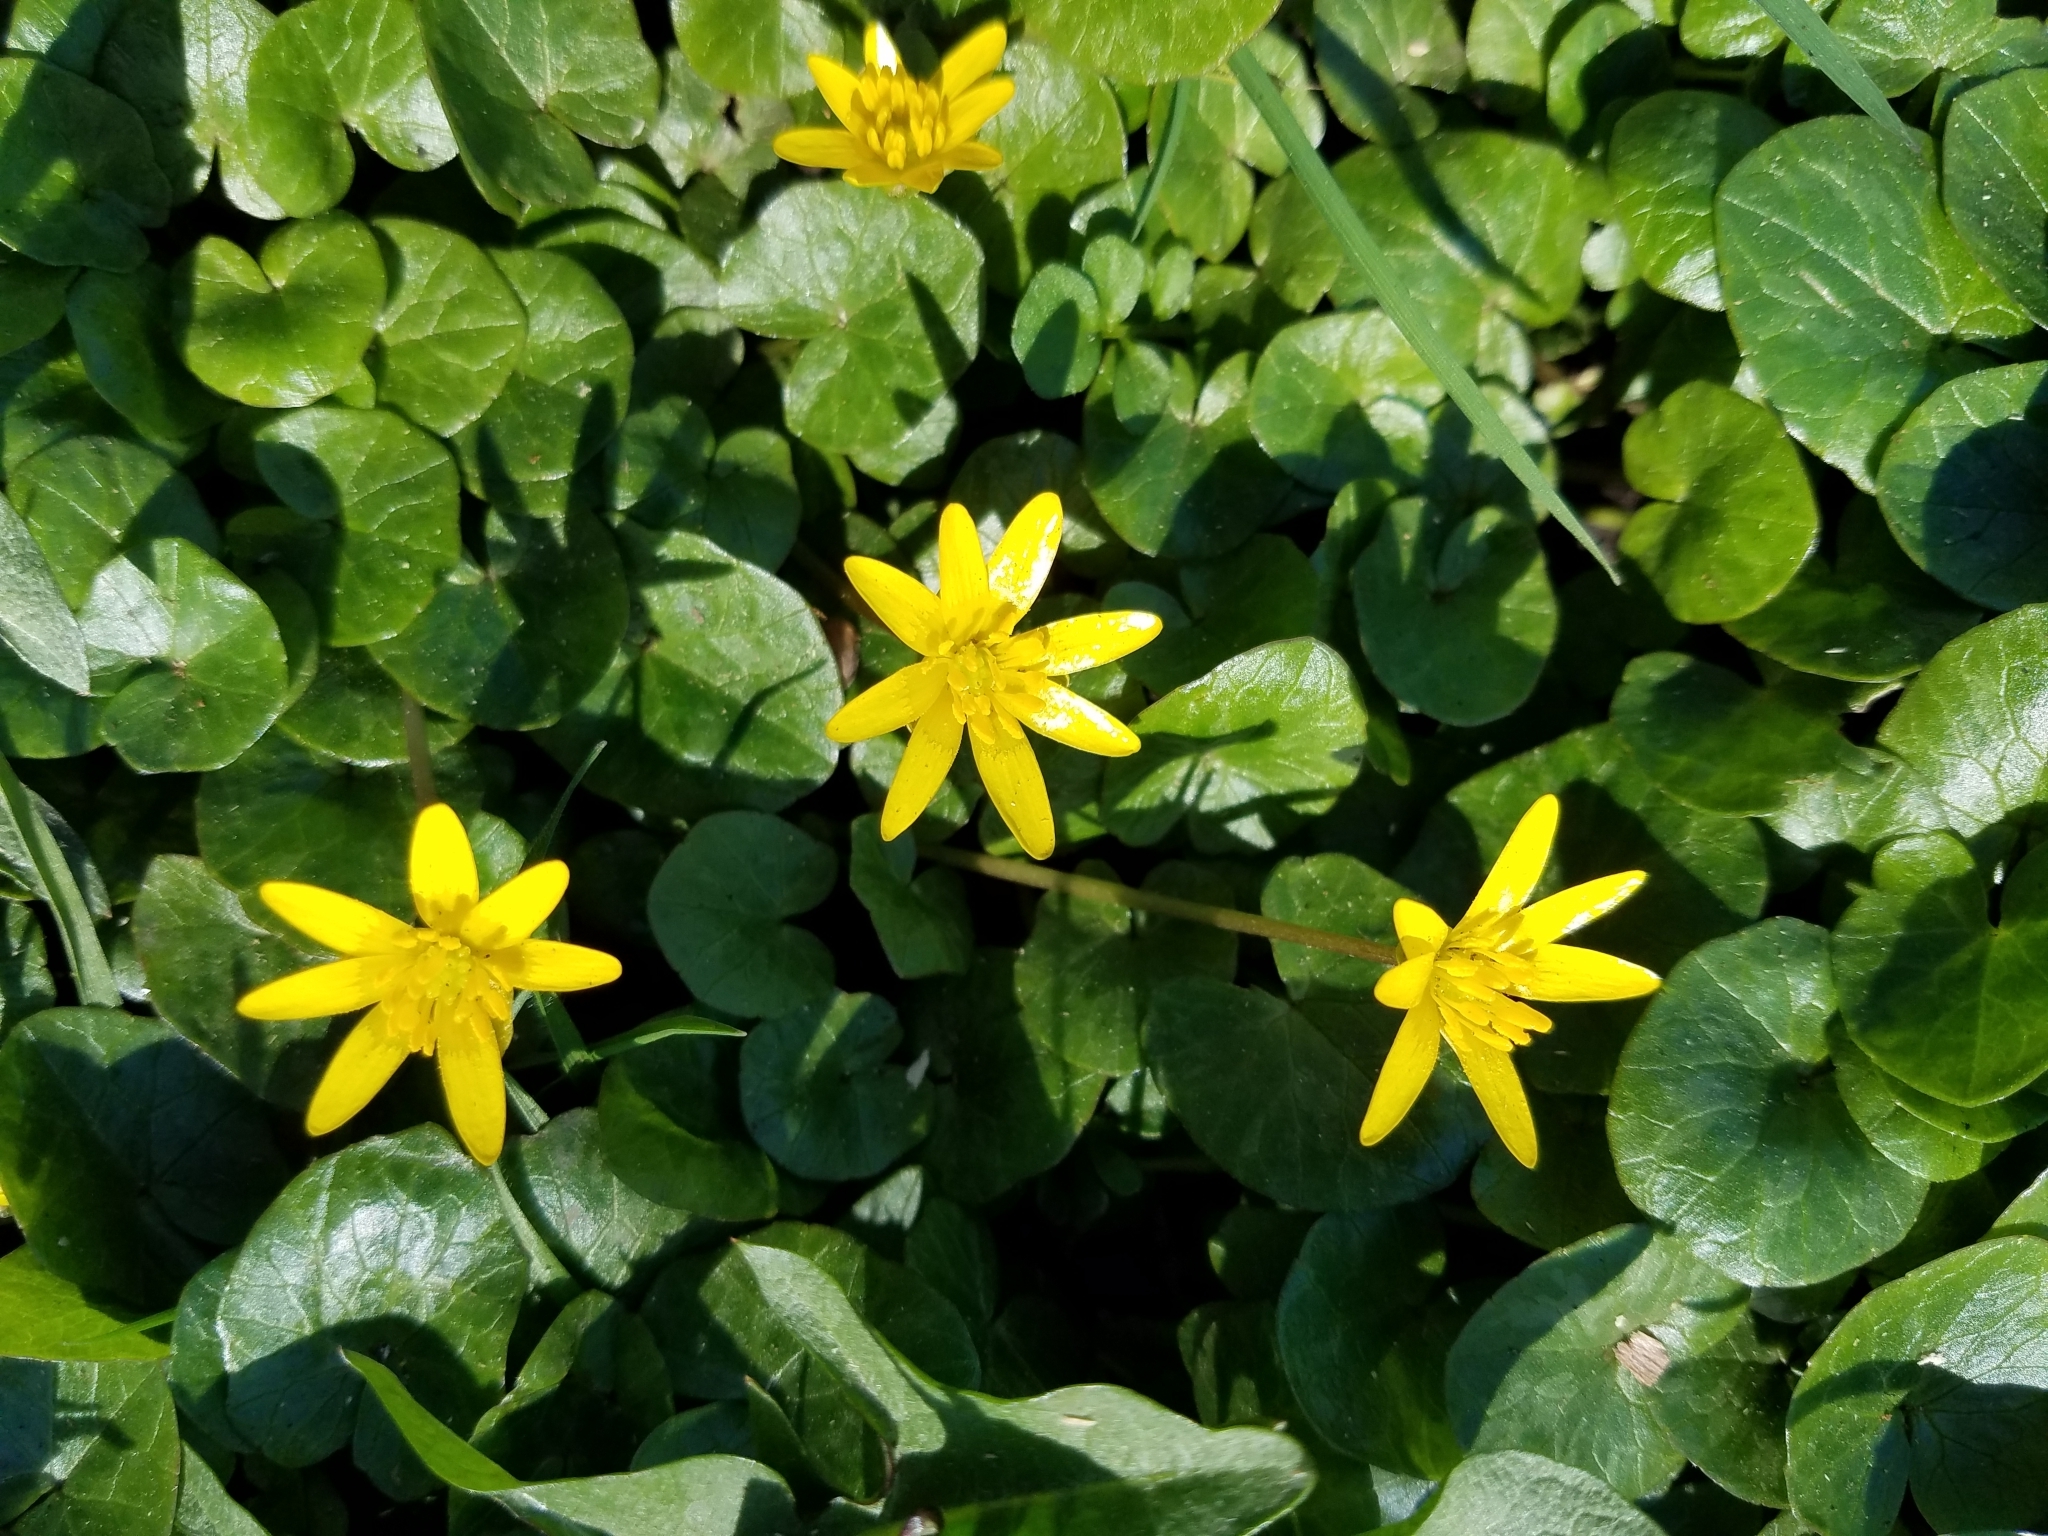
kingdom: Plantae
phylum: Tracheophyta
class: Magnoliopsida
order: Ranunculales
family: Ranunculaceae
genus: Ficaria
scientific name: Ficaria verna
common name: Lesser celandine
